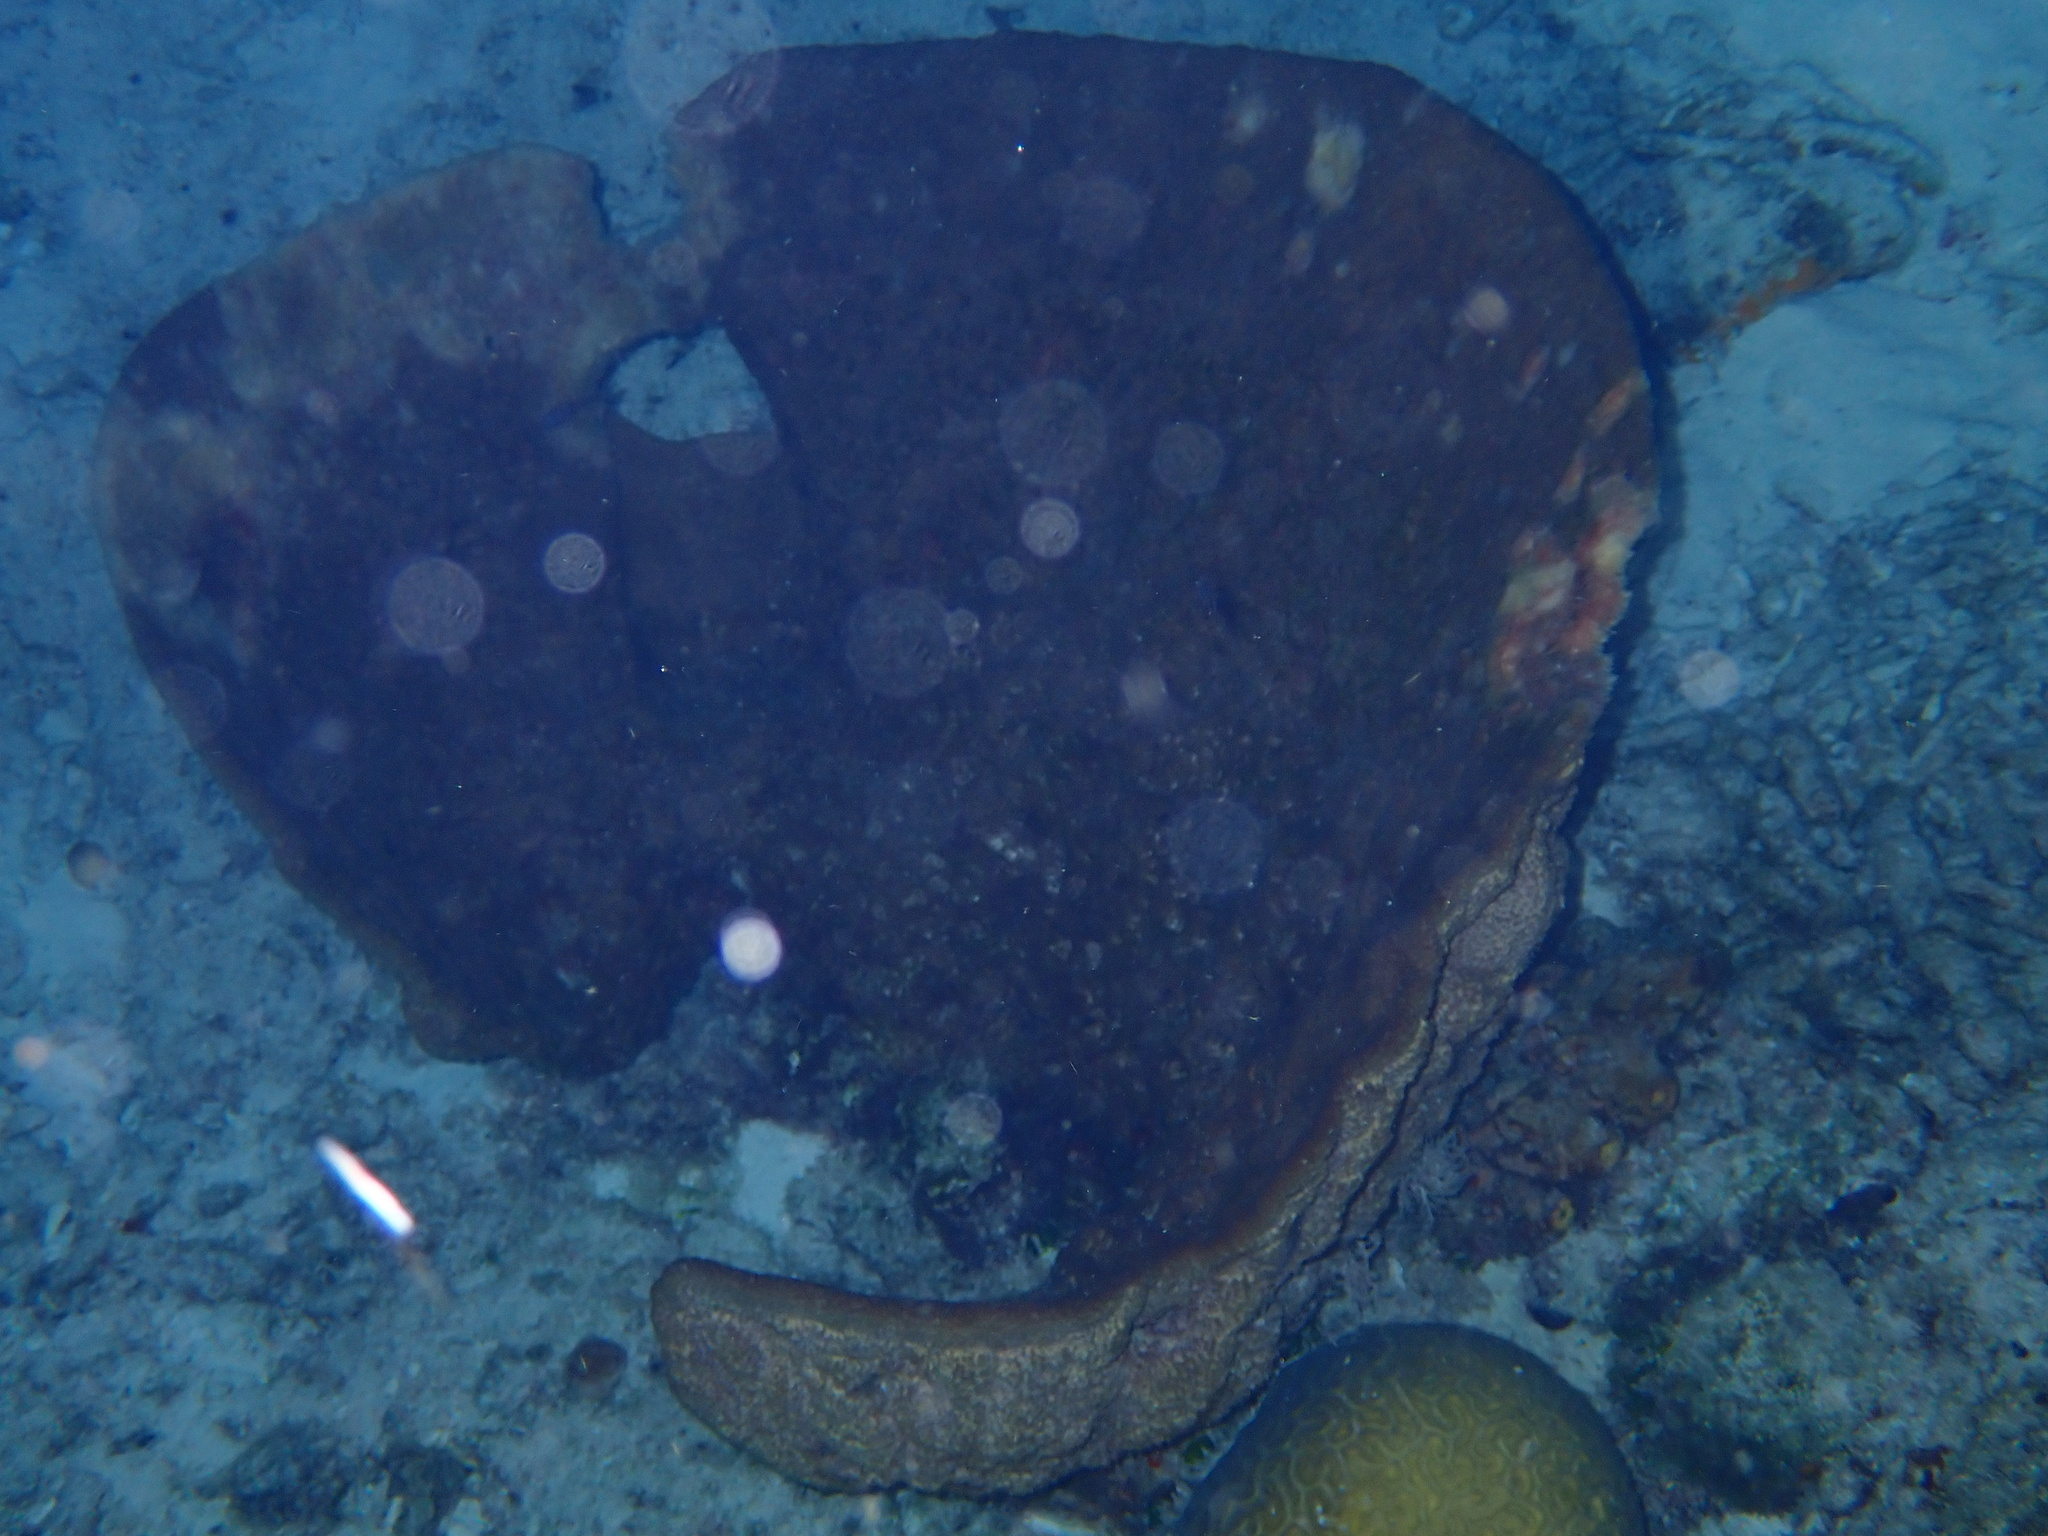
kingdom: Animalia
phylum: Porifera
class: Demospongiae
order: Dictyoceratida
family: Irciniidae
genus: Ircinia
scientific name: Ircinia campana
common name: Vase sponge
